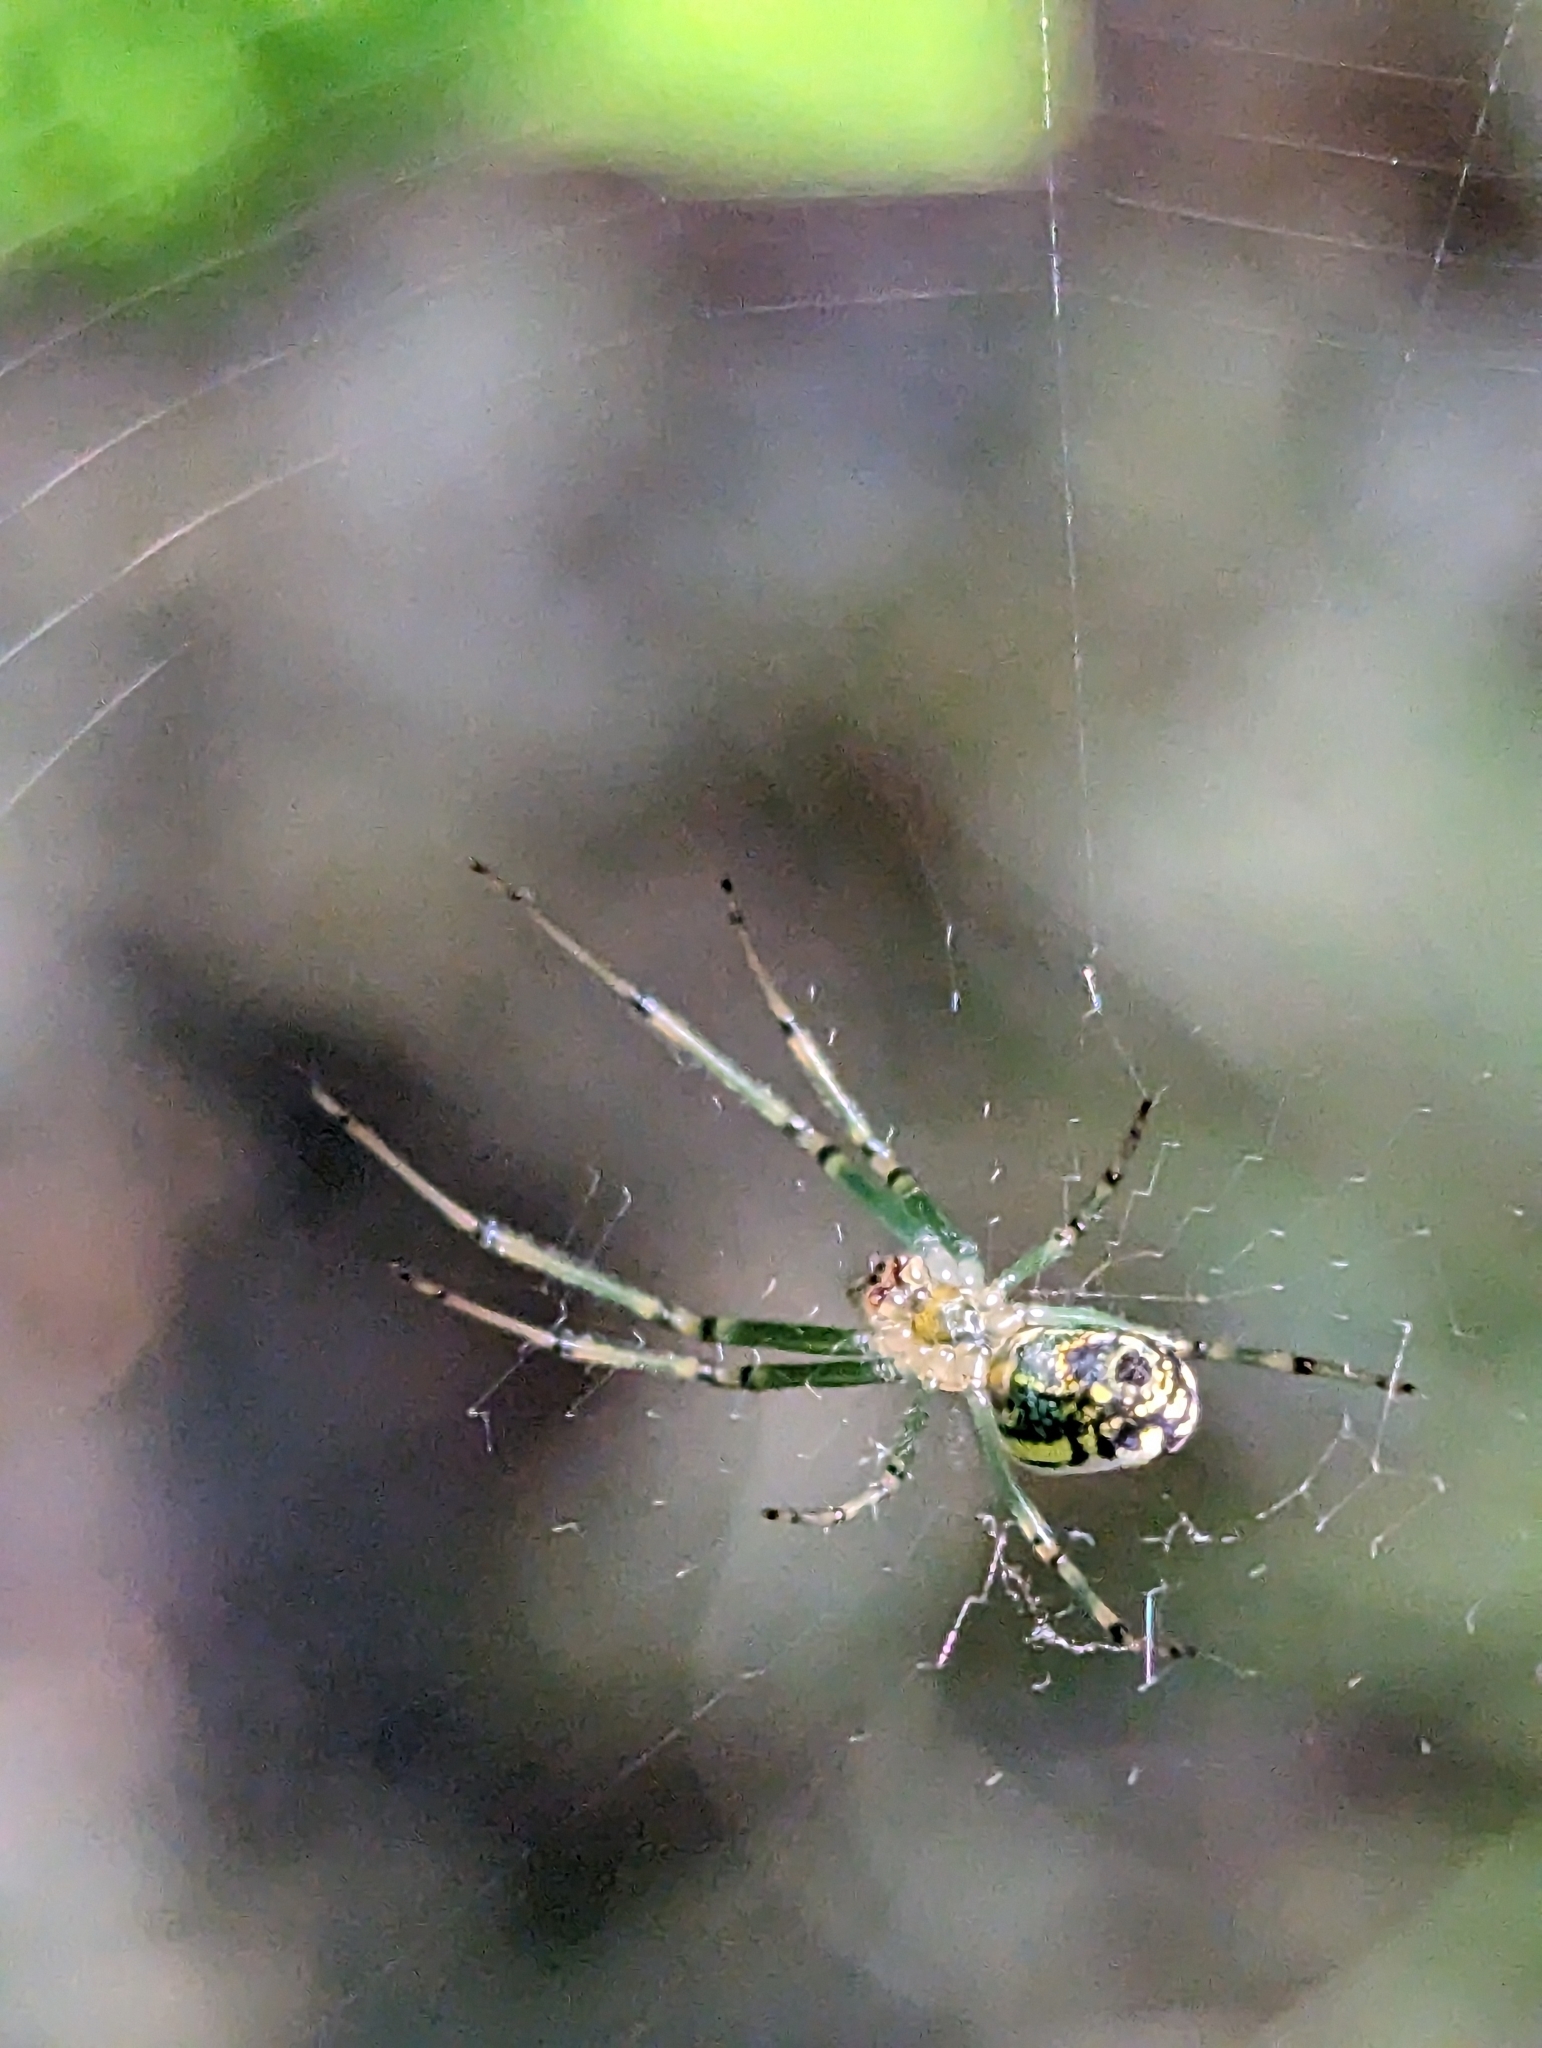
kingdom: Animalia
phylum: Arthropoda
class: Arachnida
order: Araneae
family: Tetragnathidae
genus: Leucauge
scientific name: Leucauge venusta
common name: Longjawed orb weavers
